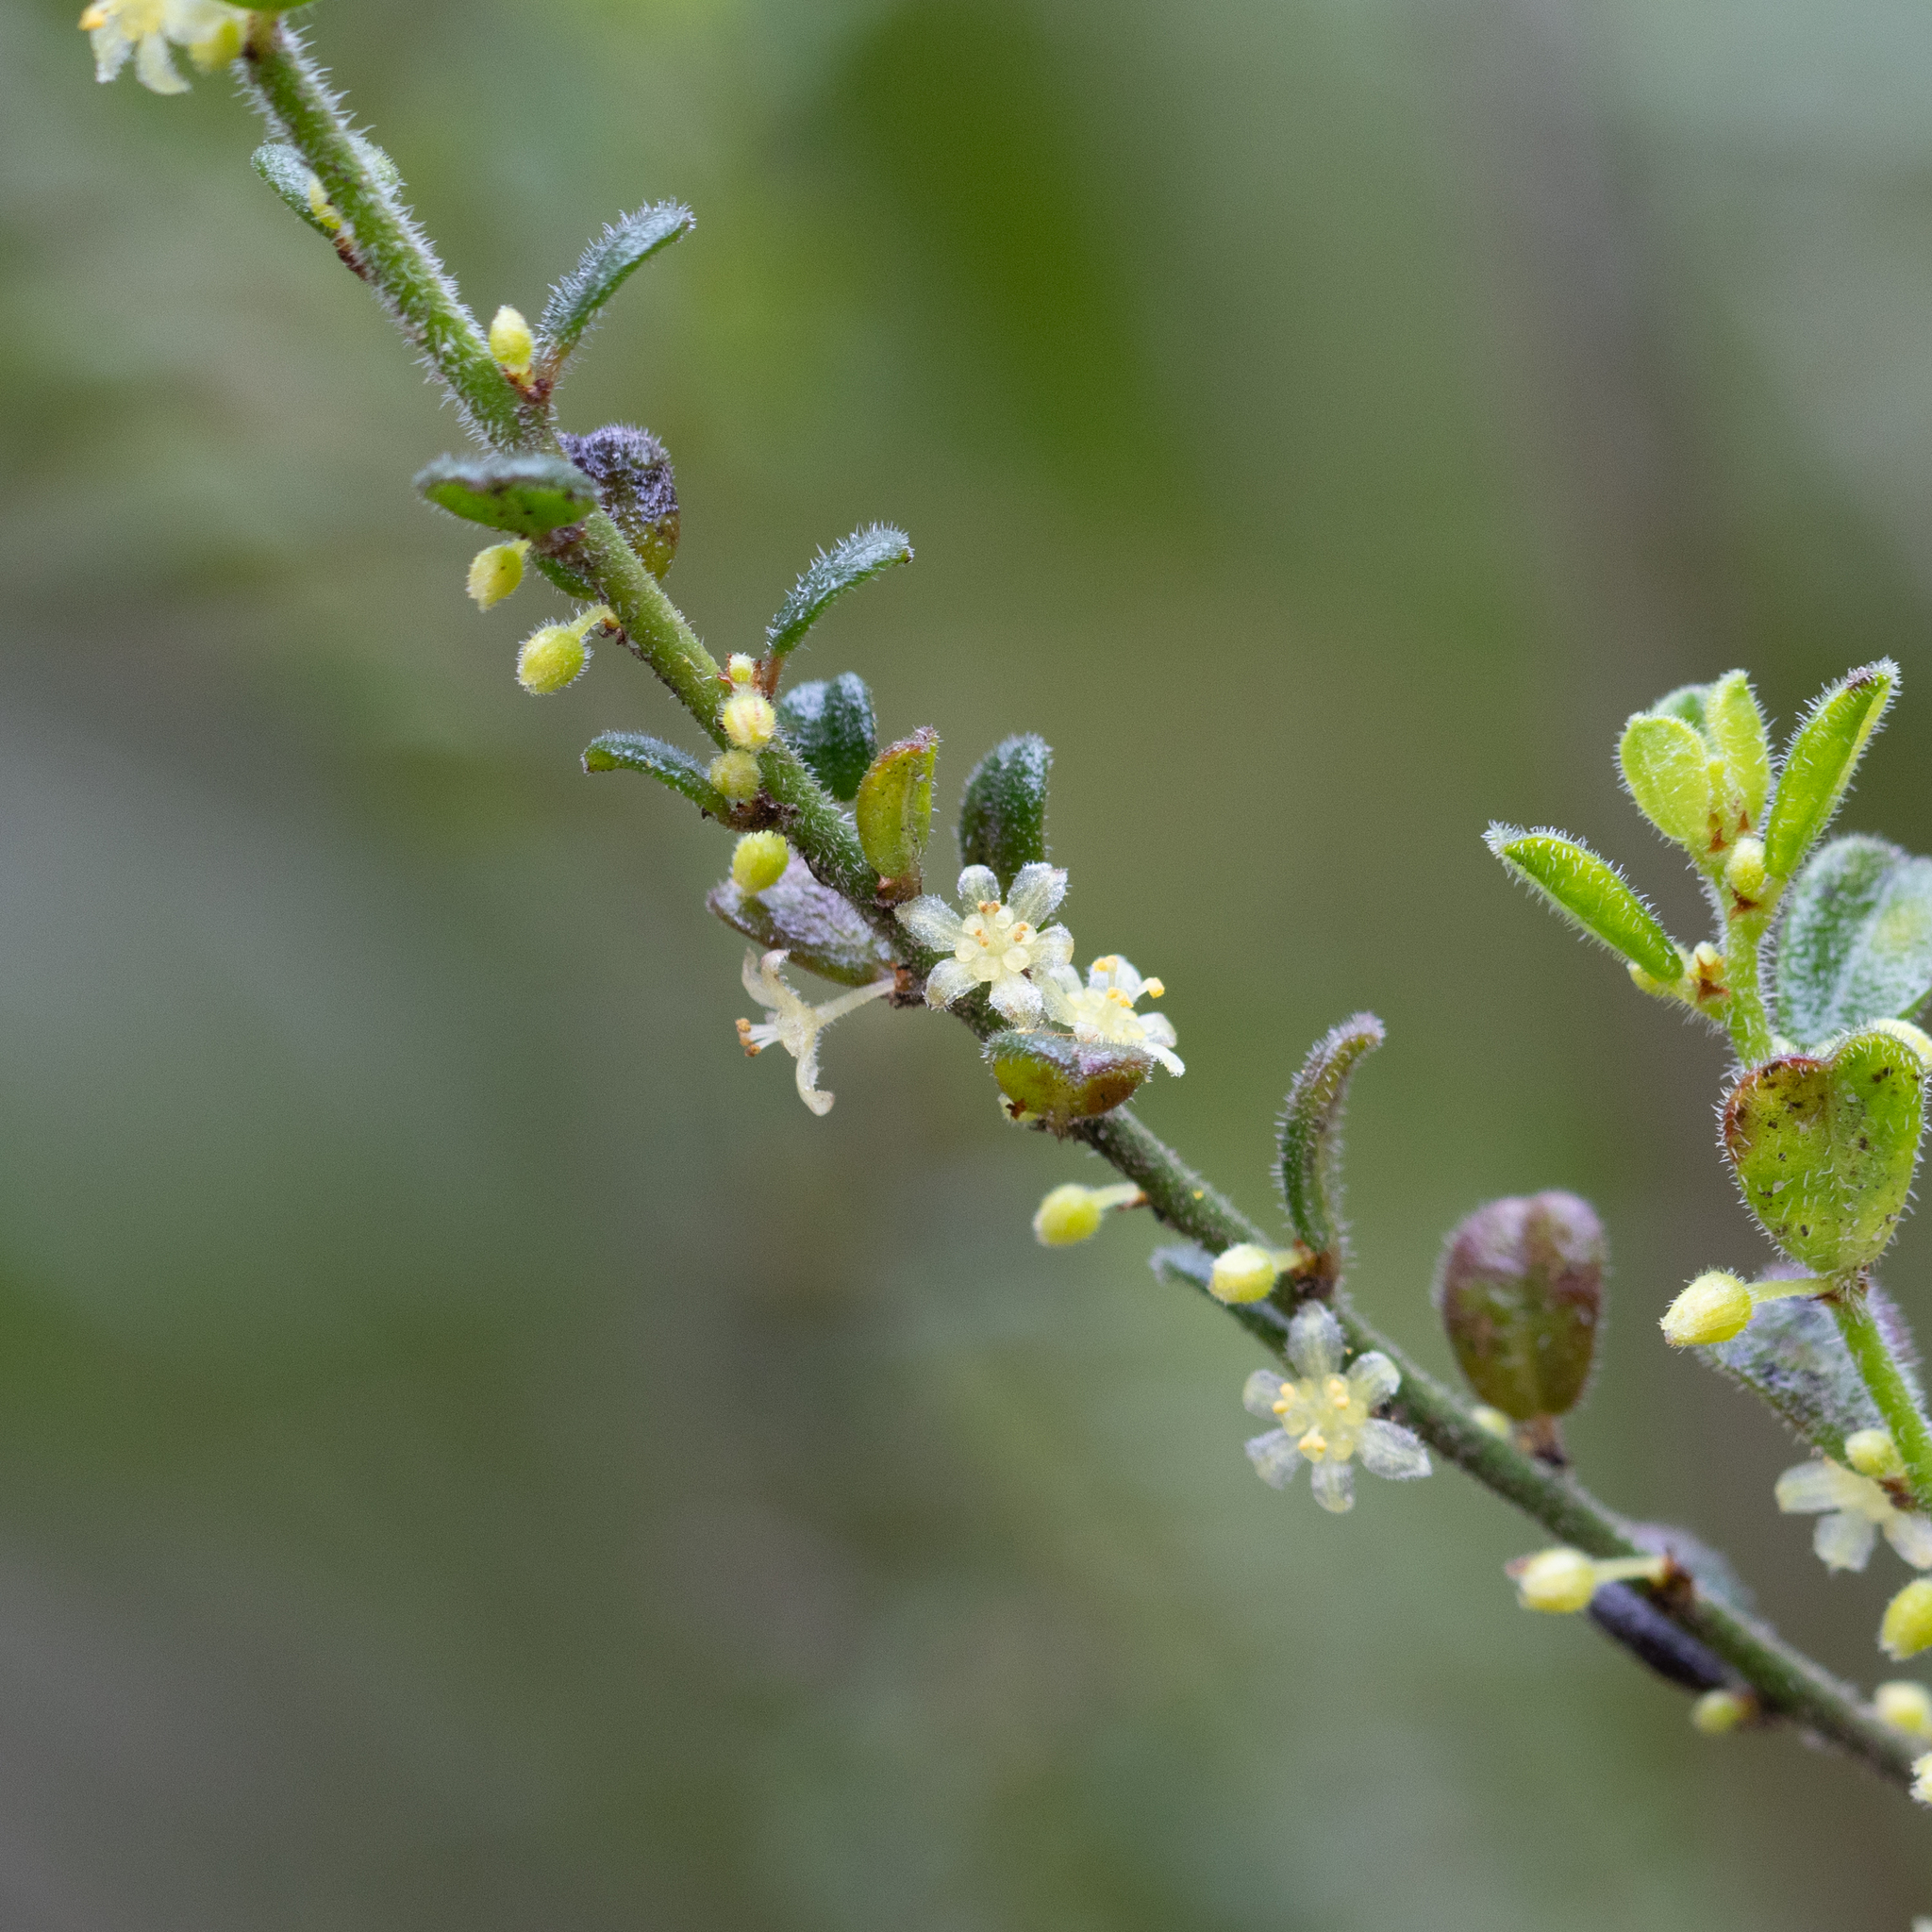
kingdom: Plantae
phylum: Tracheophyta
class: Magnoliopsida
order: Malpighiales
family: Phyllanthaceae
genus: Phyllanthus
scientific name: Phyllanthus hirtellus
